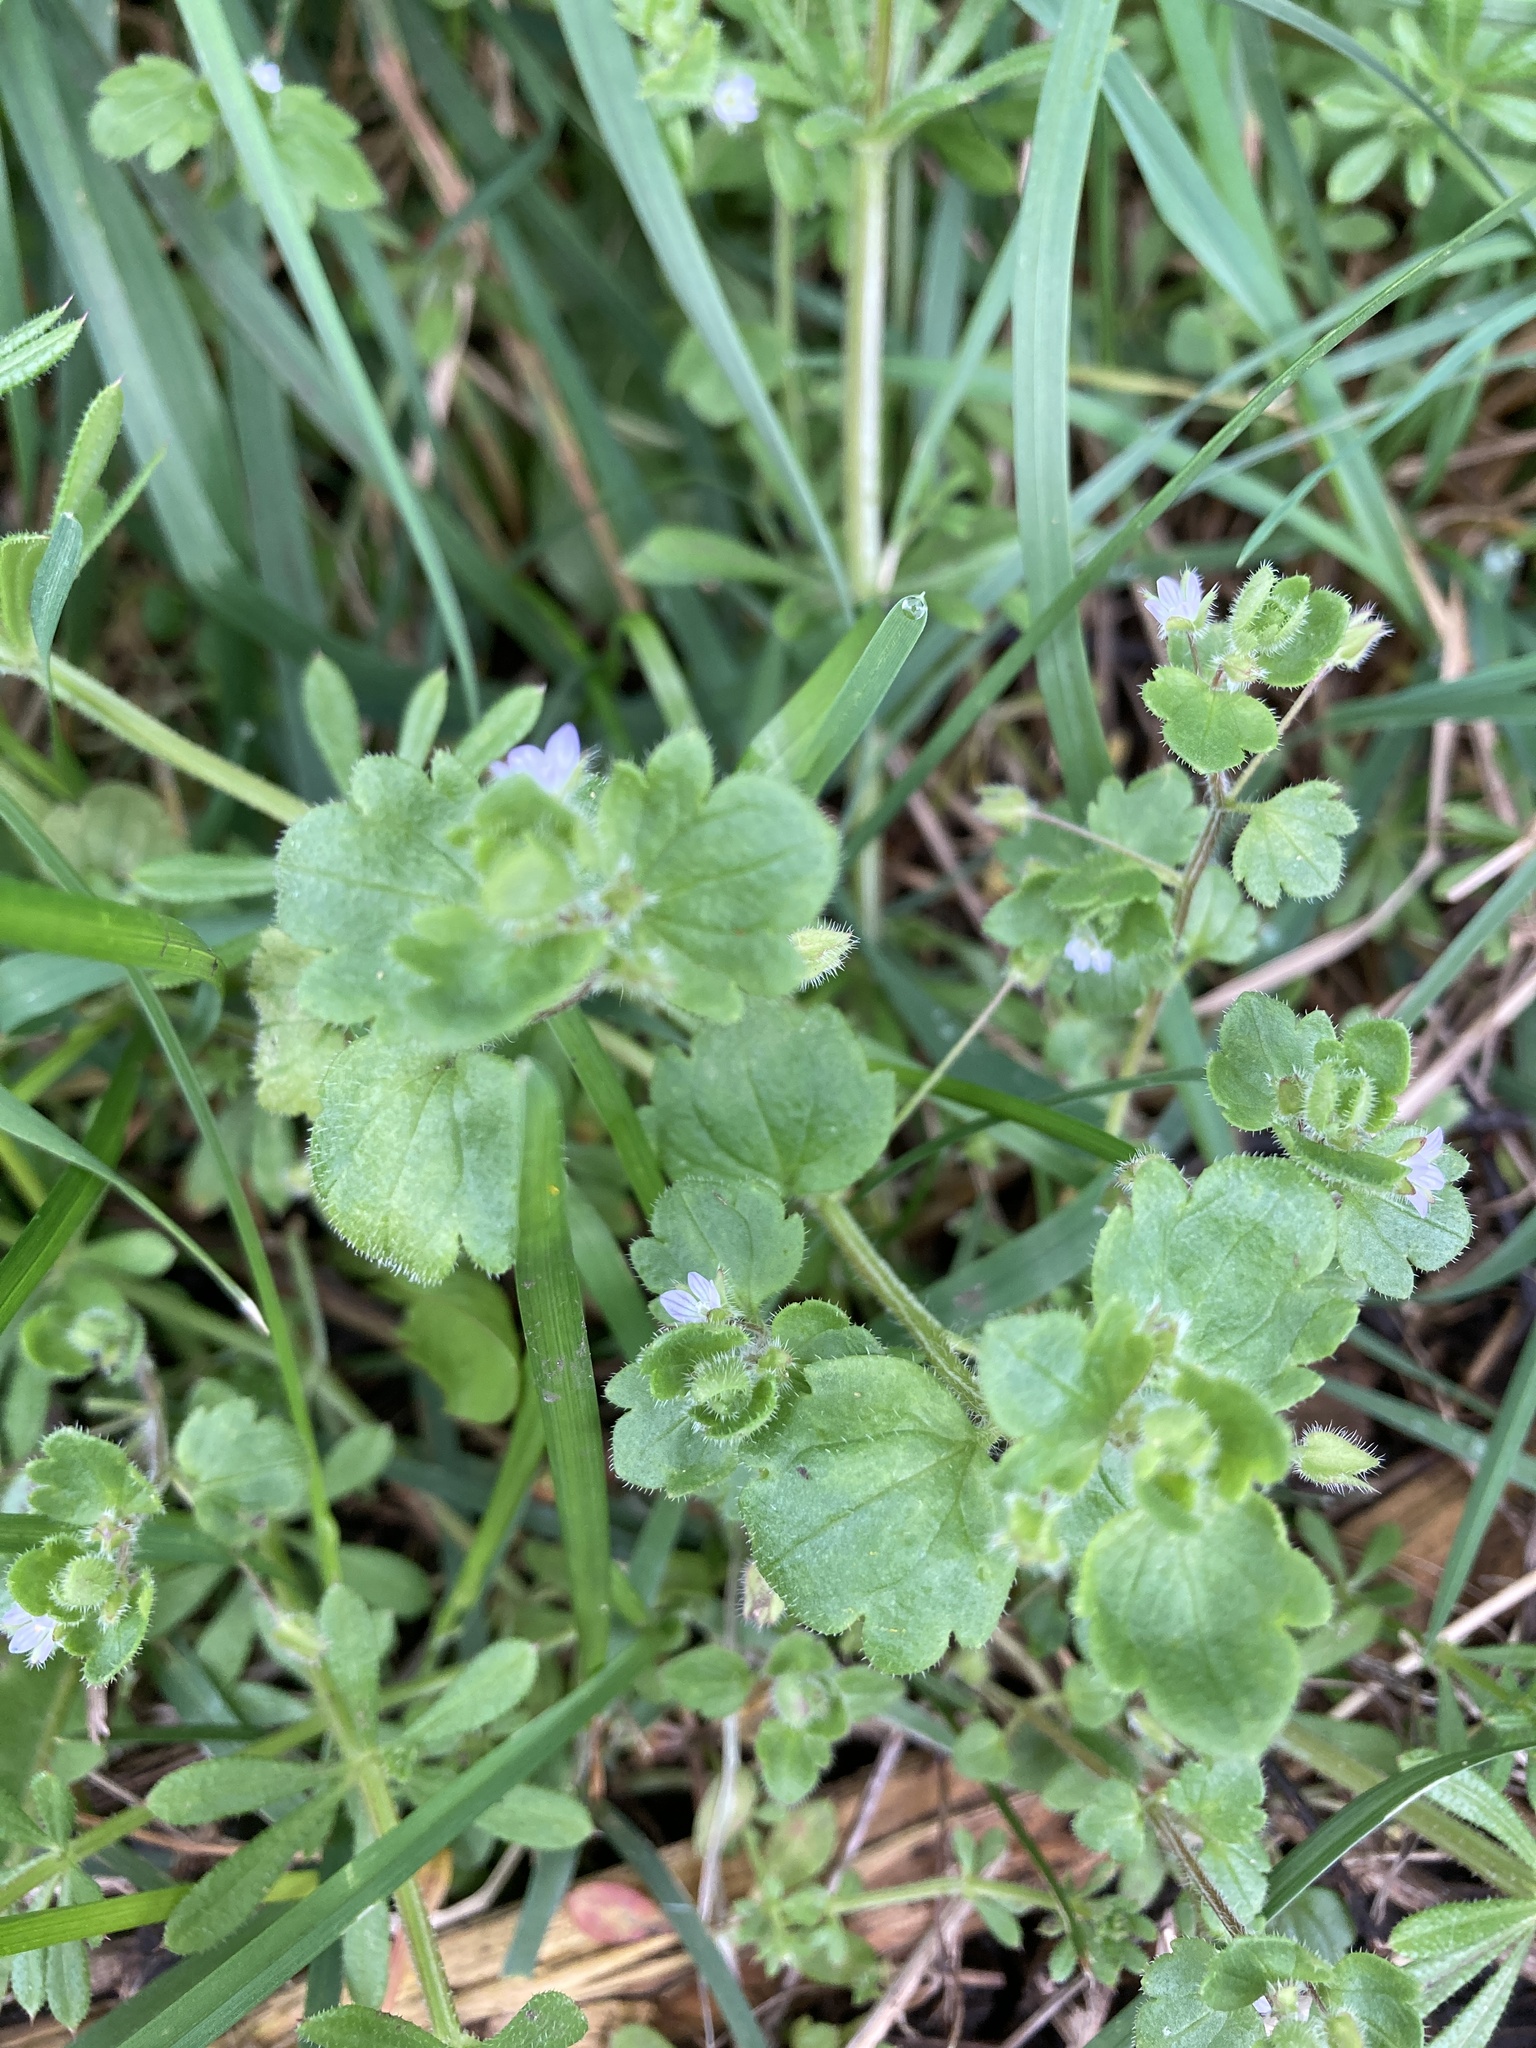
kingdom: Plantae
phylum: Tracheophyta
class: Magnoliopsida
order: Lamiales
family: Plantaginaceae
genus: Veronica
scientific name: Veronica sublobata
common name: False ivy-leaved speedwell
